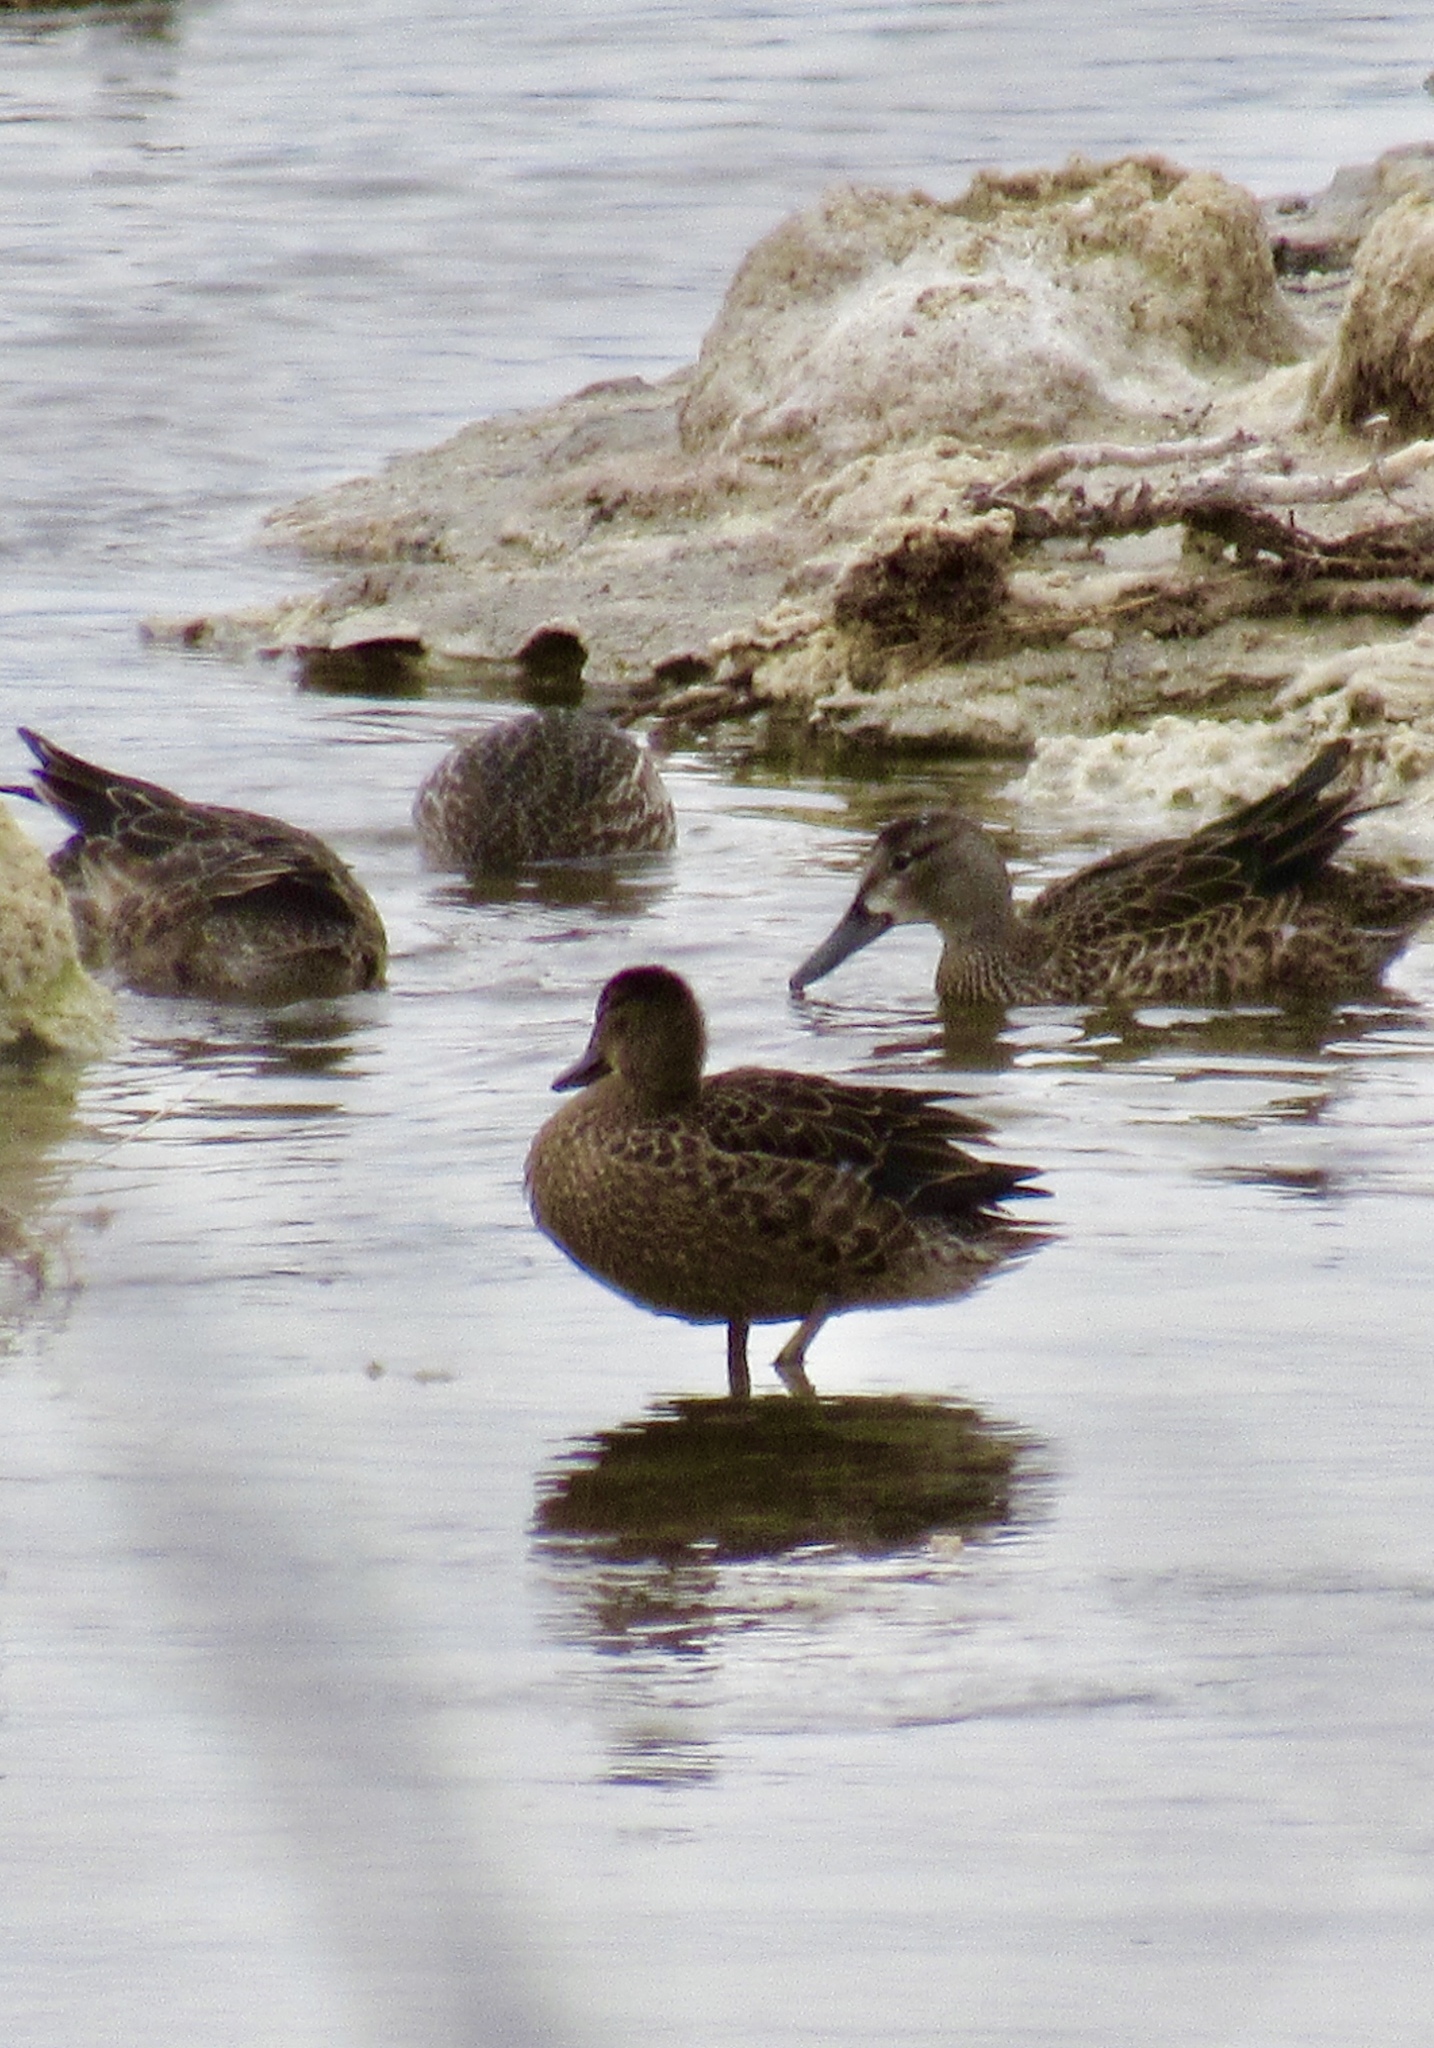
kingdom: Animalia
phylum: Chordata
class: Aves
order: Anseriformes
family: Anatidae
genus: Spatula
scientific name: Spatula discors
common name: Blue-winged teal
